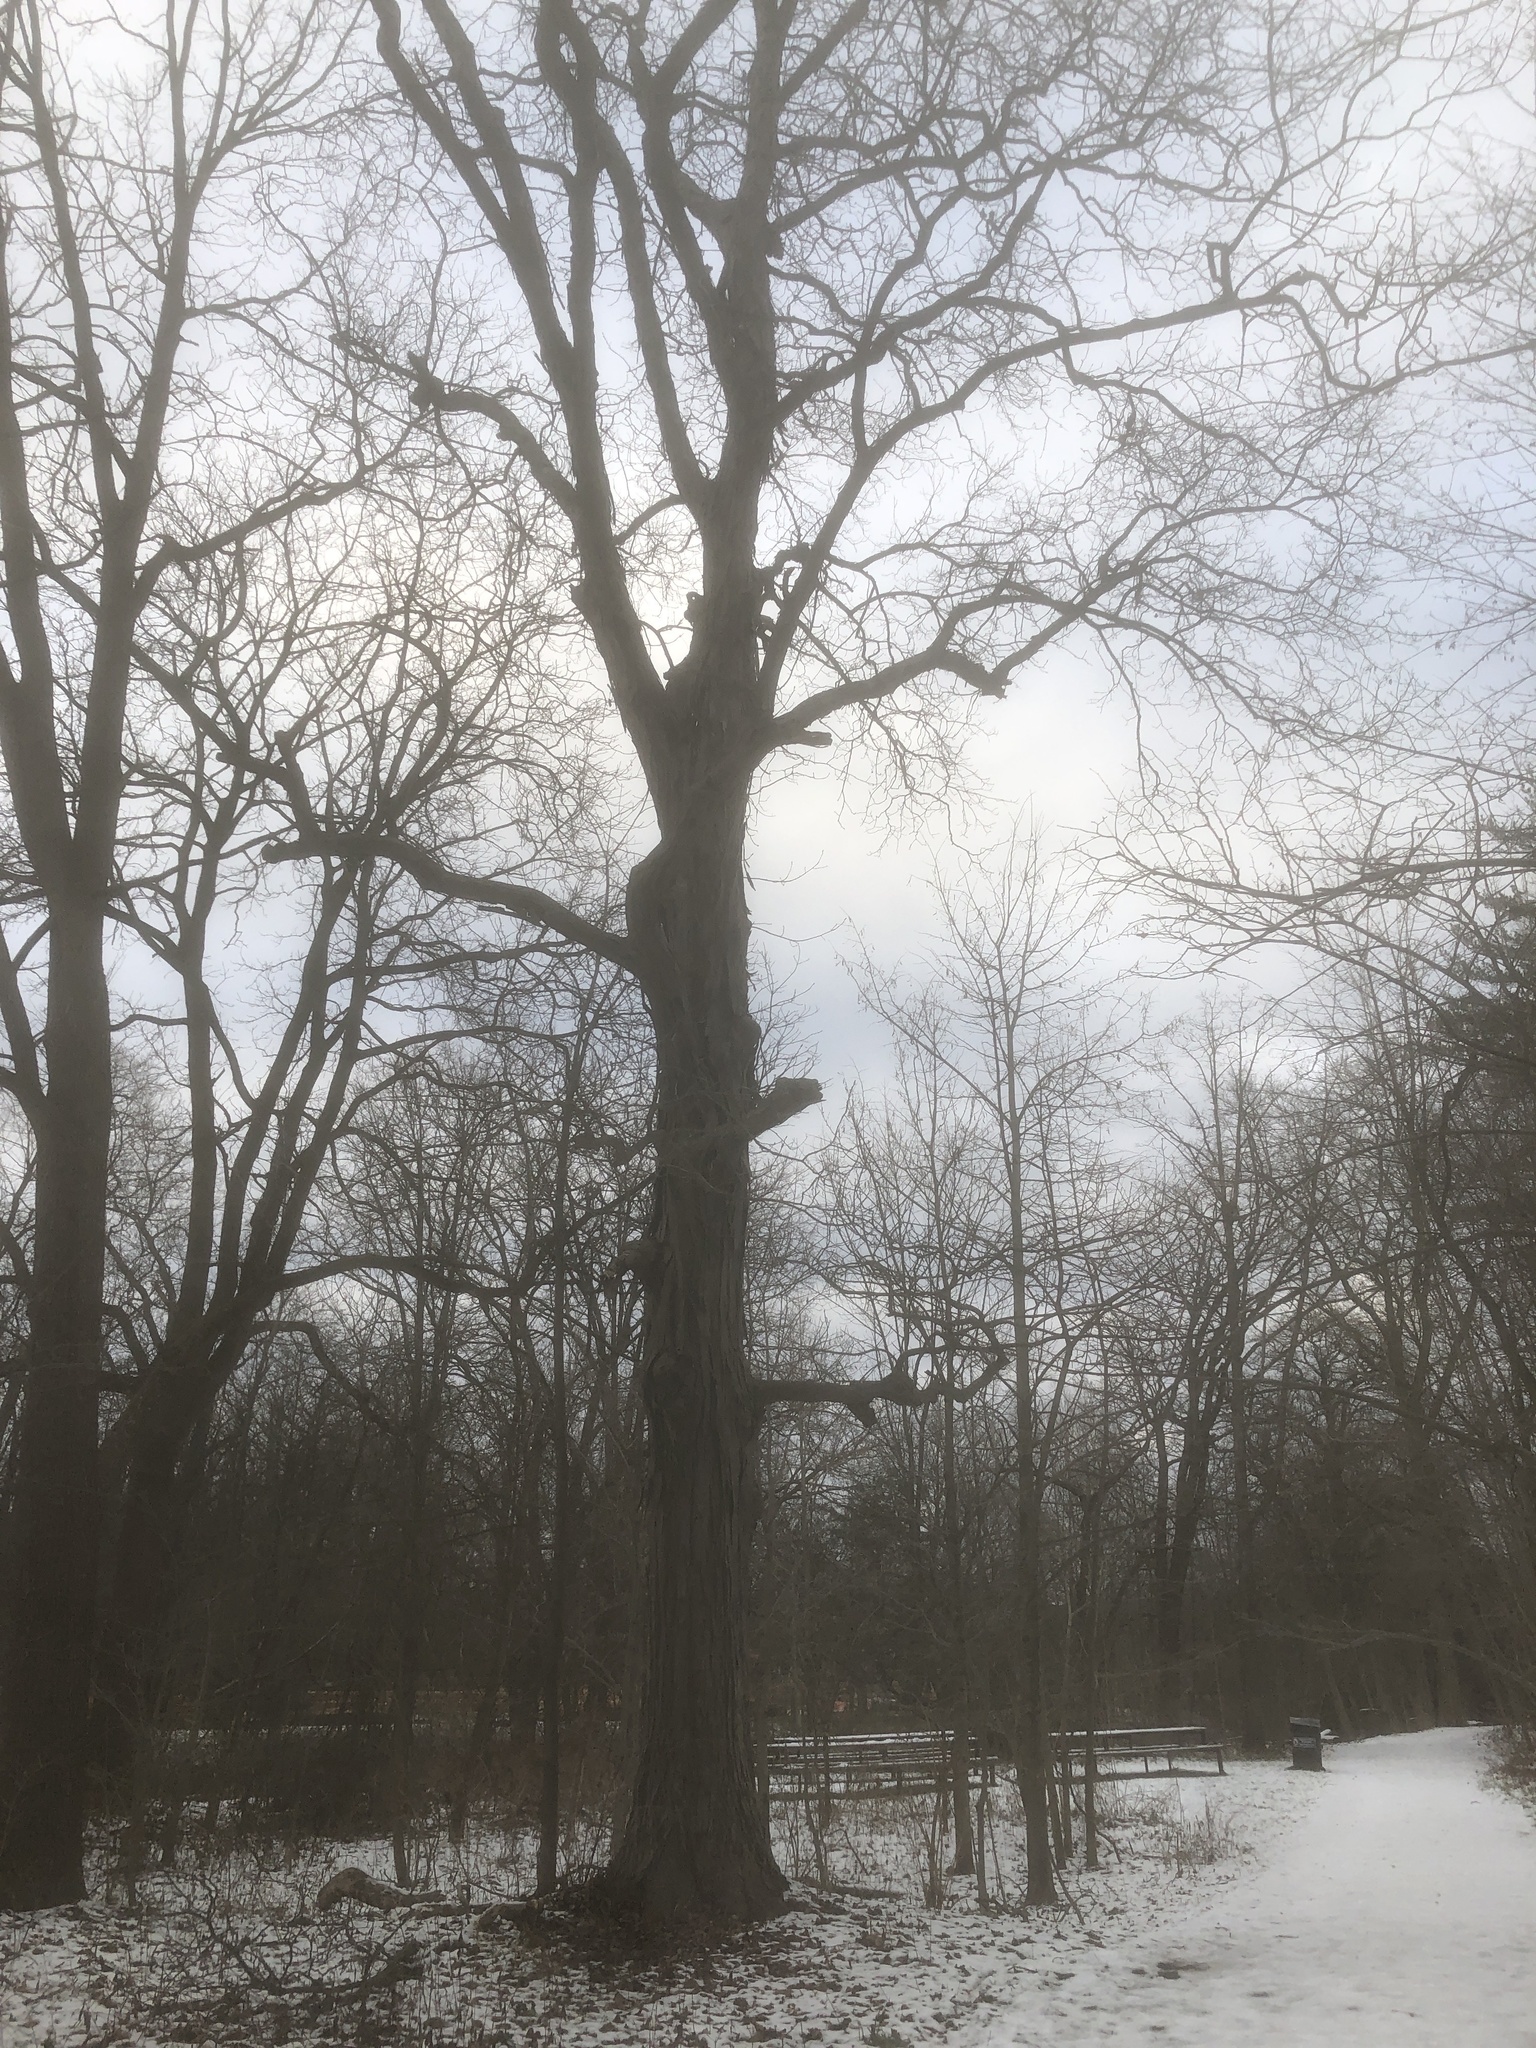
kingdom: Plantae
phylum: Tracheophyta
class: Magnoliopsida
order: Fagales
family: Juglandaceae
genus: Carya
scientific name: Carya ovata
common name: Shagbark hickory
